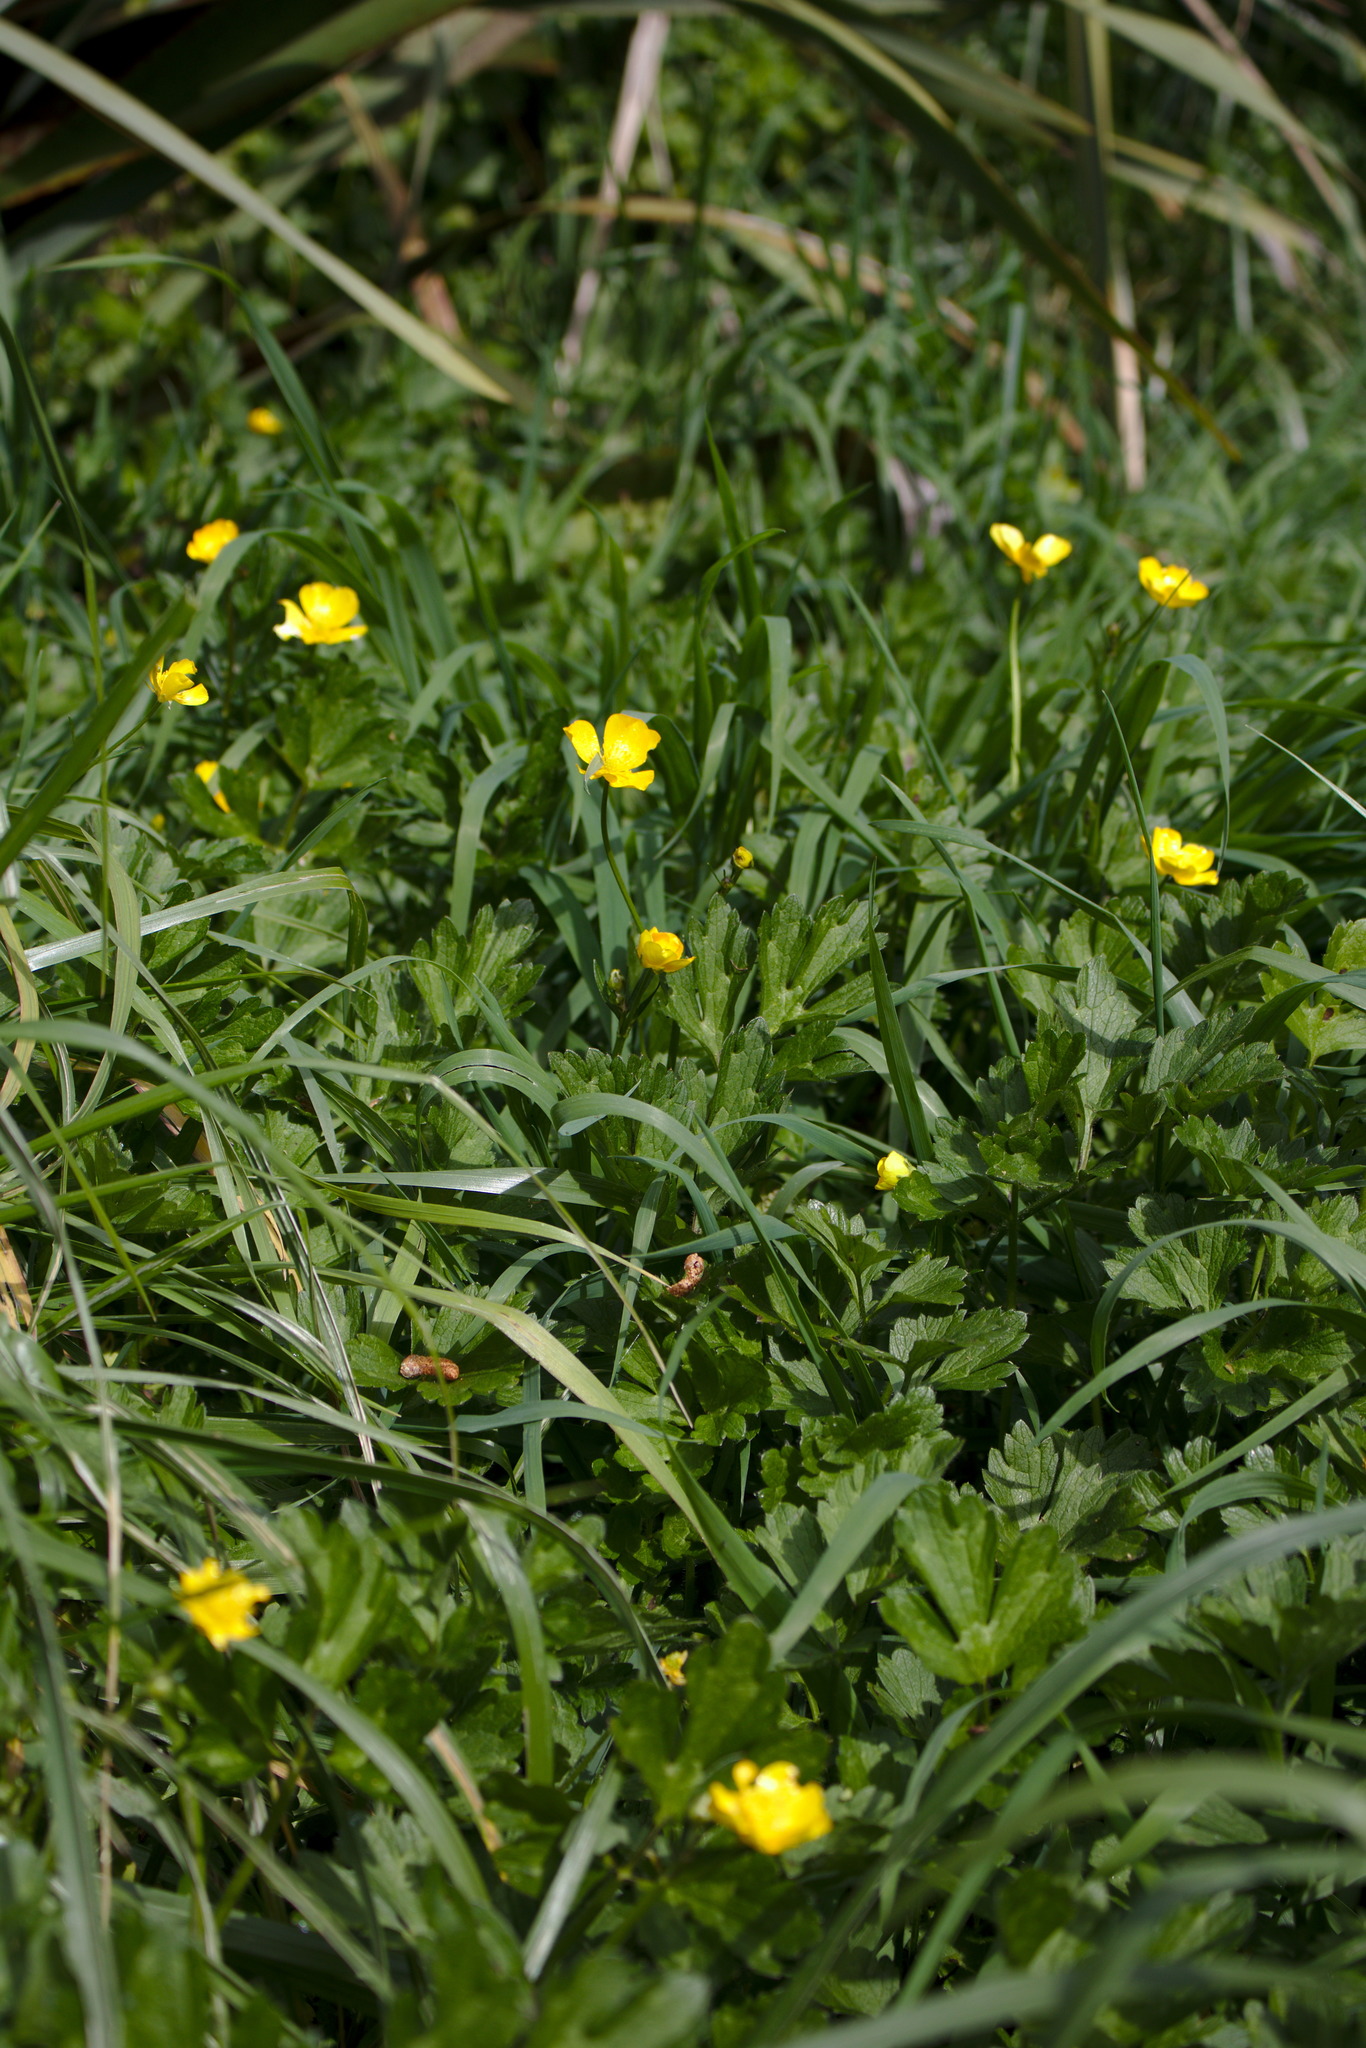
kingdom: Plantae
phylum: Tracheophyta
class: Magnoliopsida
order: Ranunculales
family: Ranunculaceae
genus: Ranunculus
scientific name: Ranunculus repens
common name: Creeping buttercup
